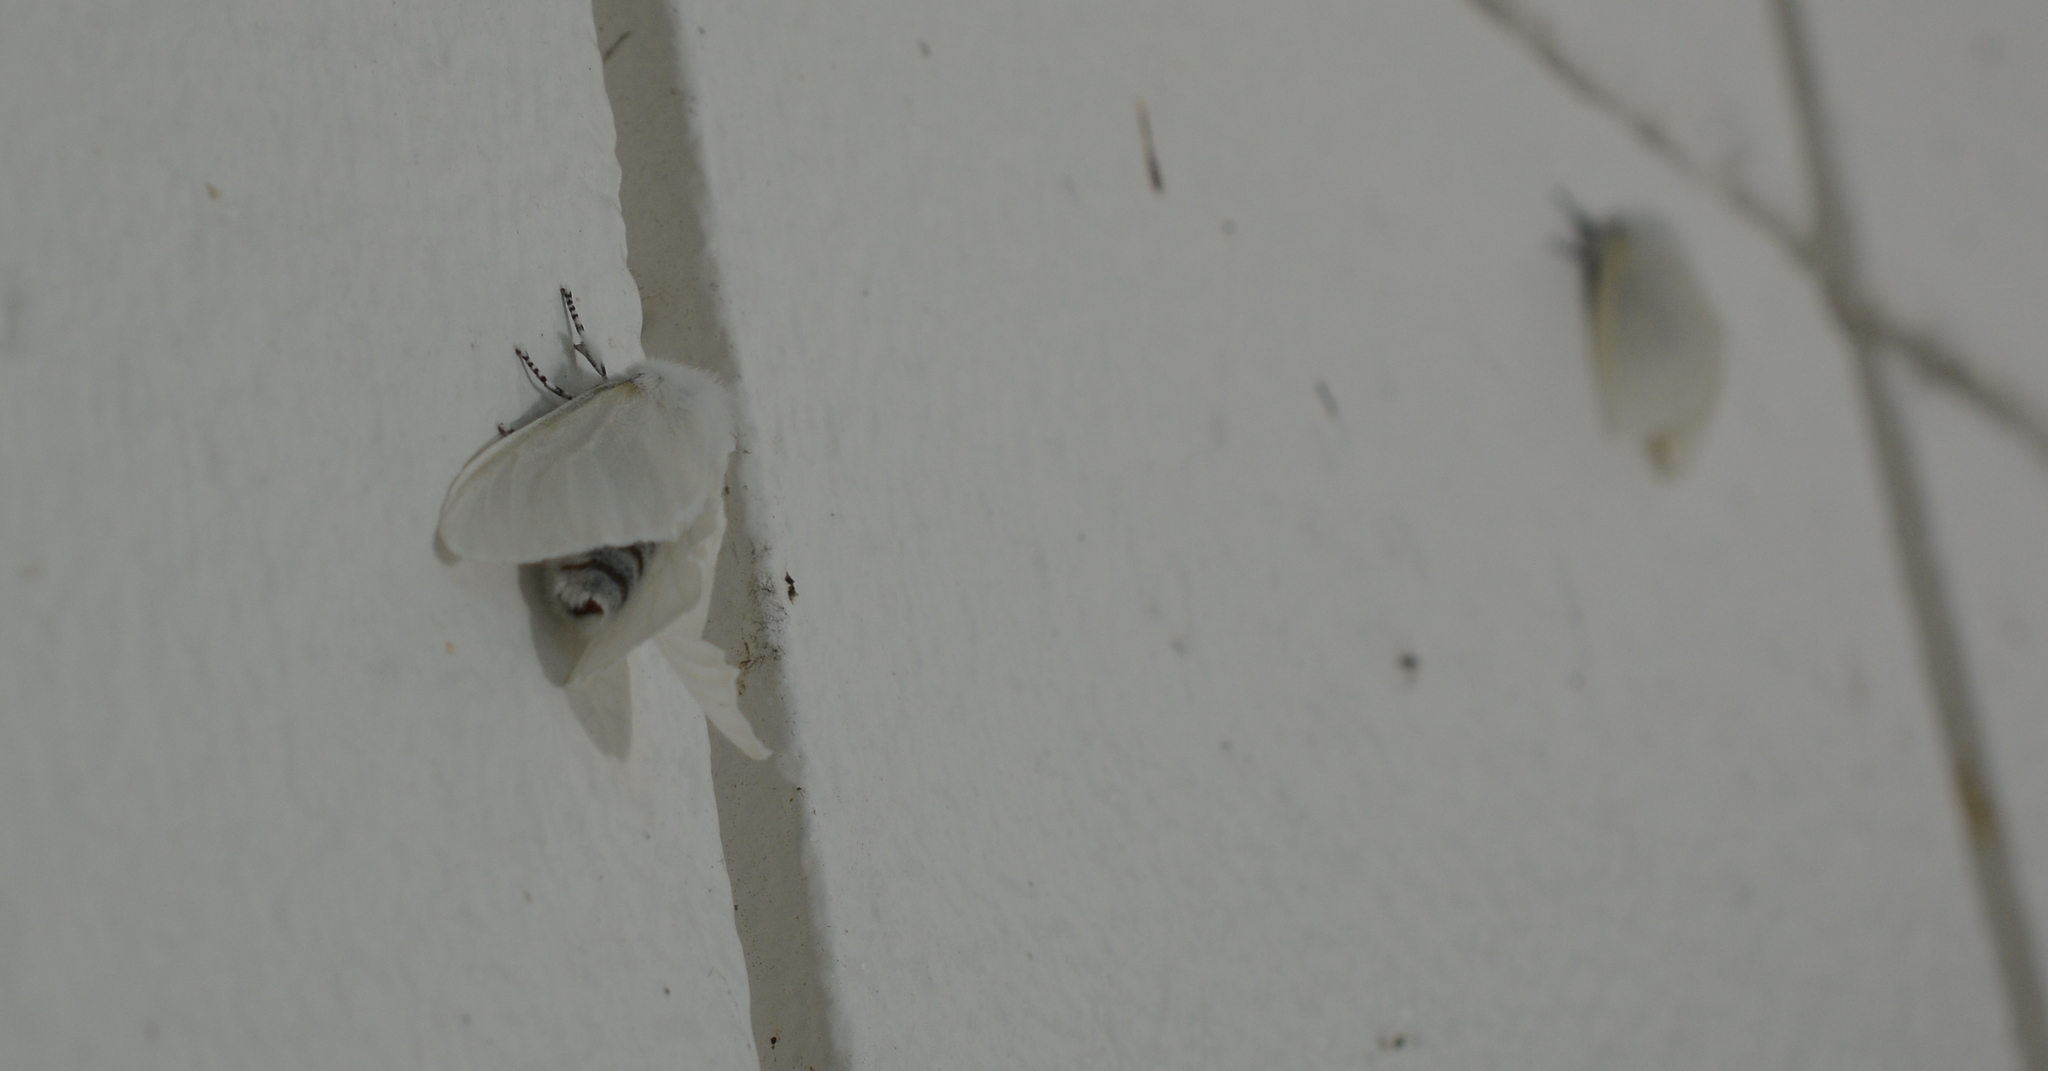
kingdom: Animalia
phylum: Arthropoda
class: Insecta
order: Lepidoptera
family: Erebidae
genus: Leucoma
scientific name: Leucoma salicis
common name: White satin moth
